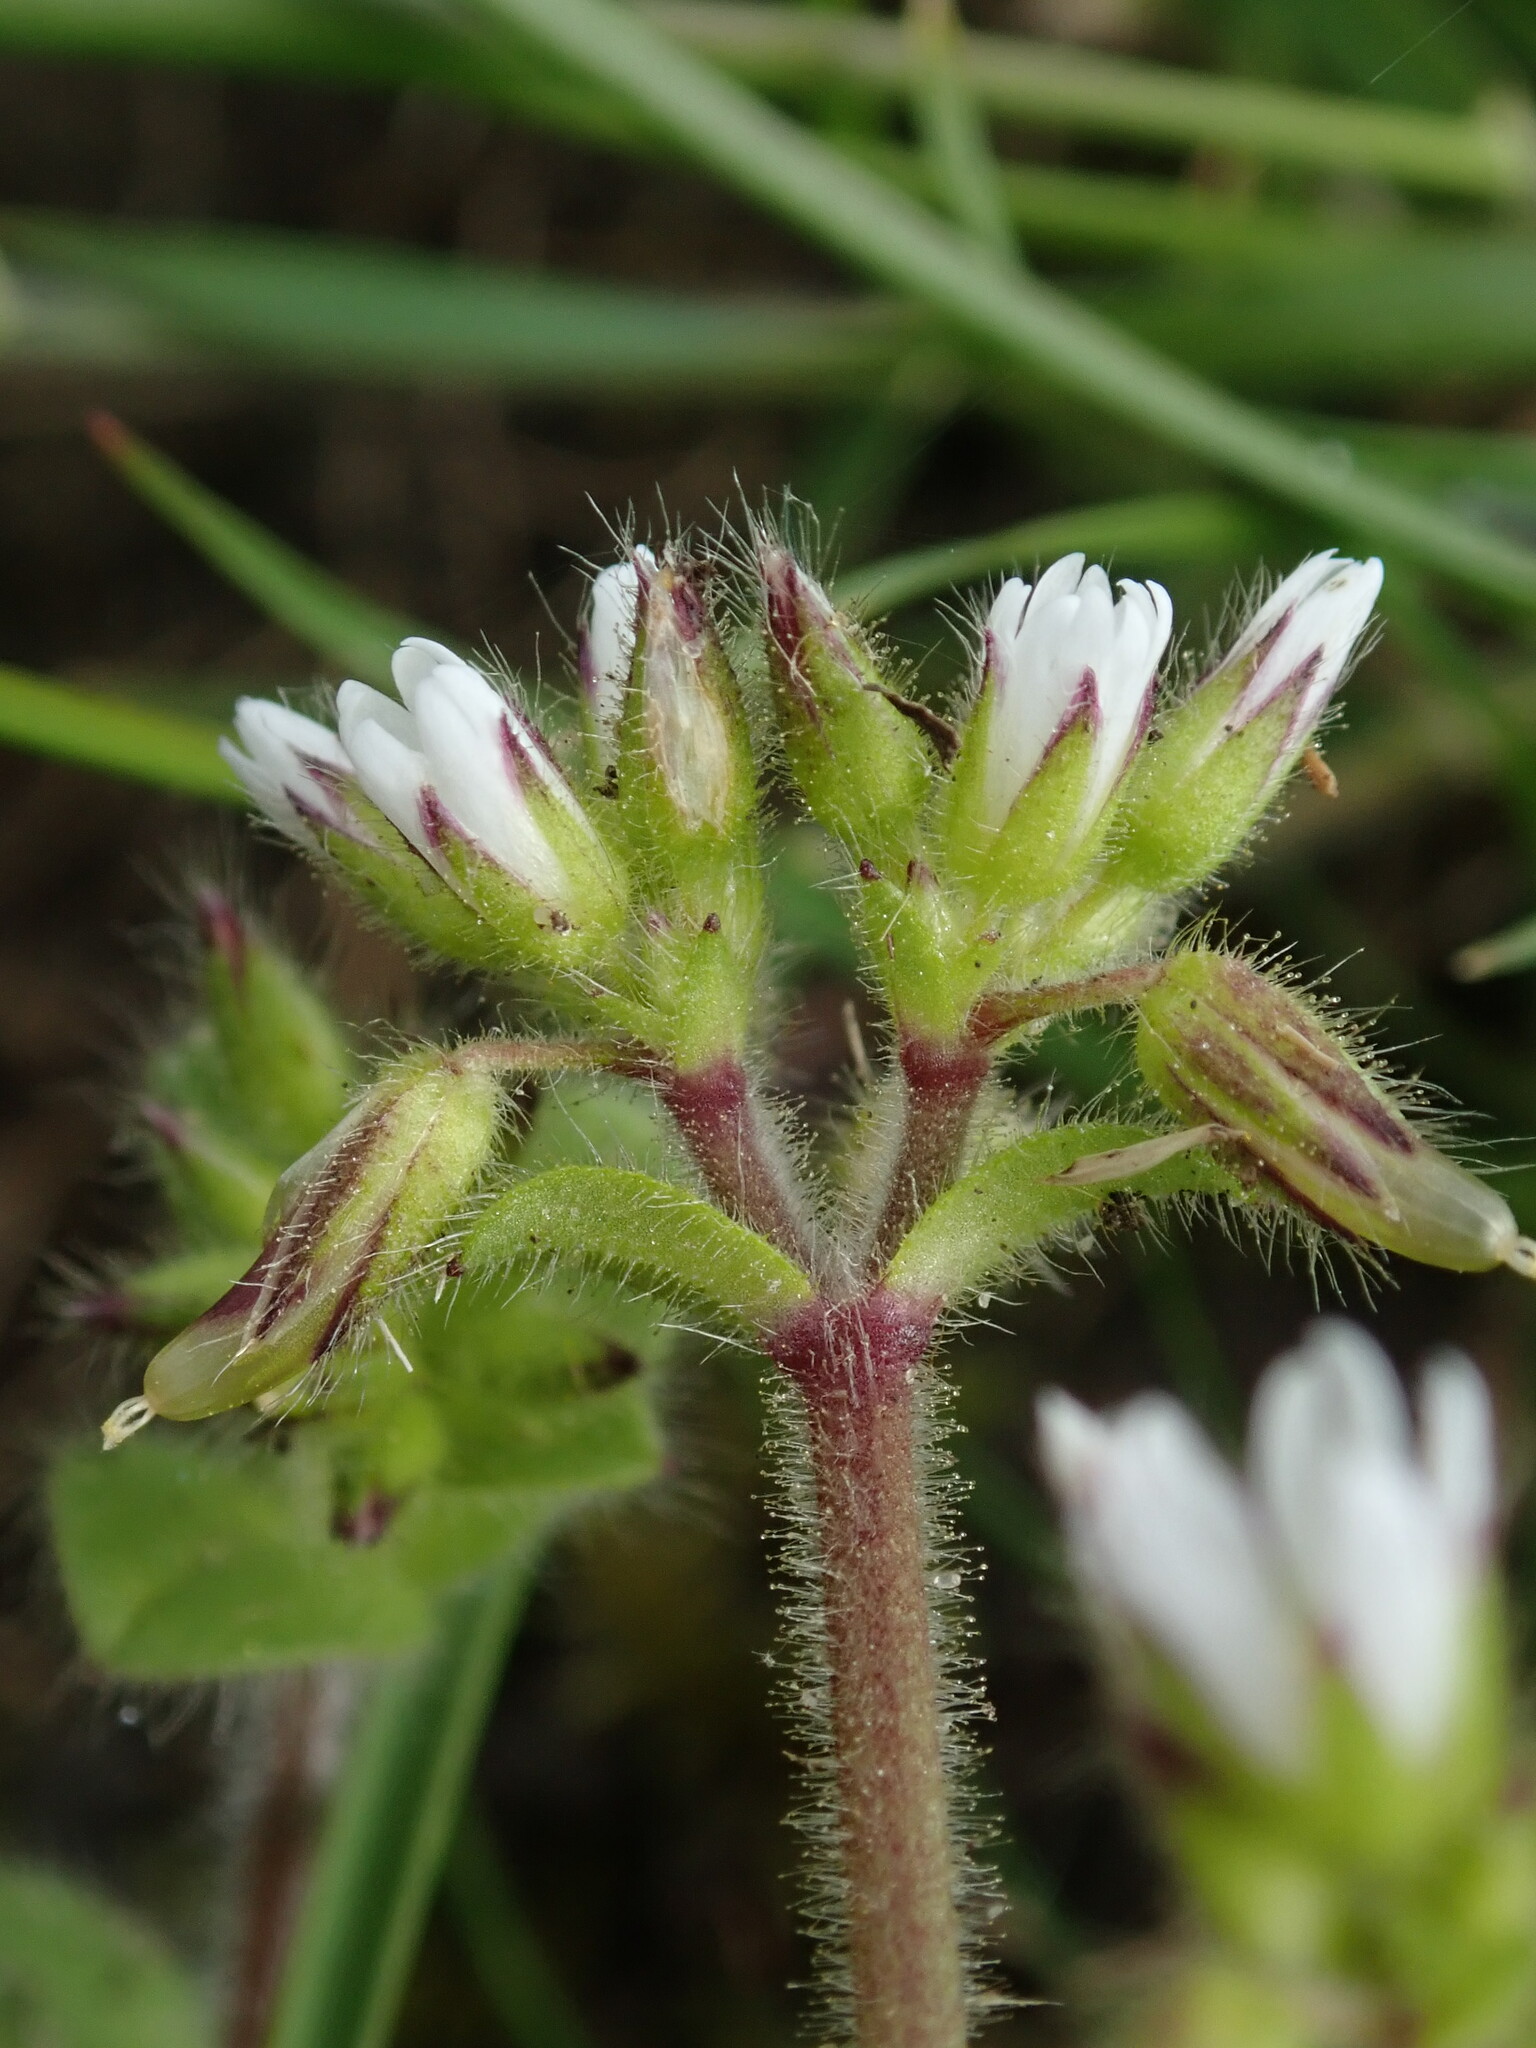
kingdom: Plantae
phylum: Tracheophyta
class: Magnoliopsida
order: Caryophyllales
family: Caryophyllaceae
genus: Cerastium
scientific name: Cerastium glomeratum
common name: Sticky chickweed
